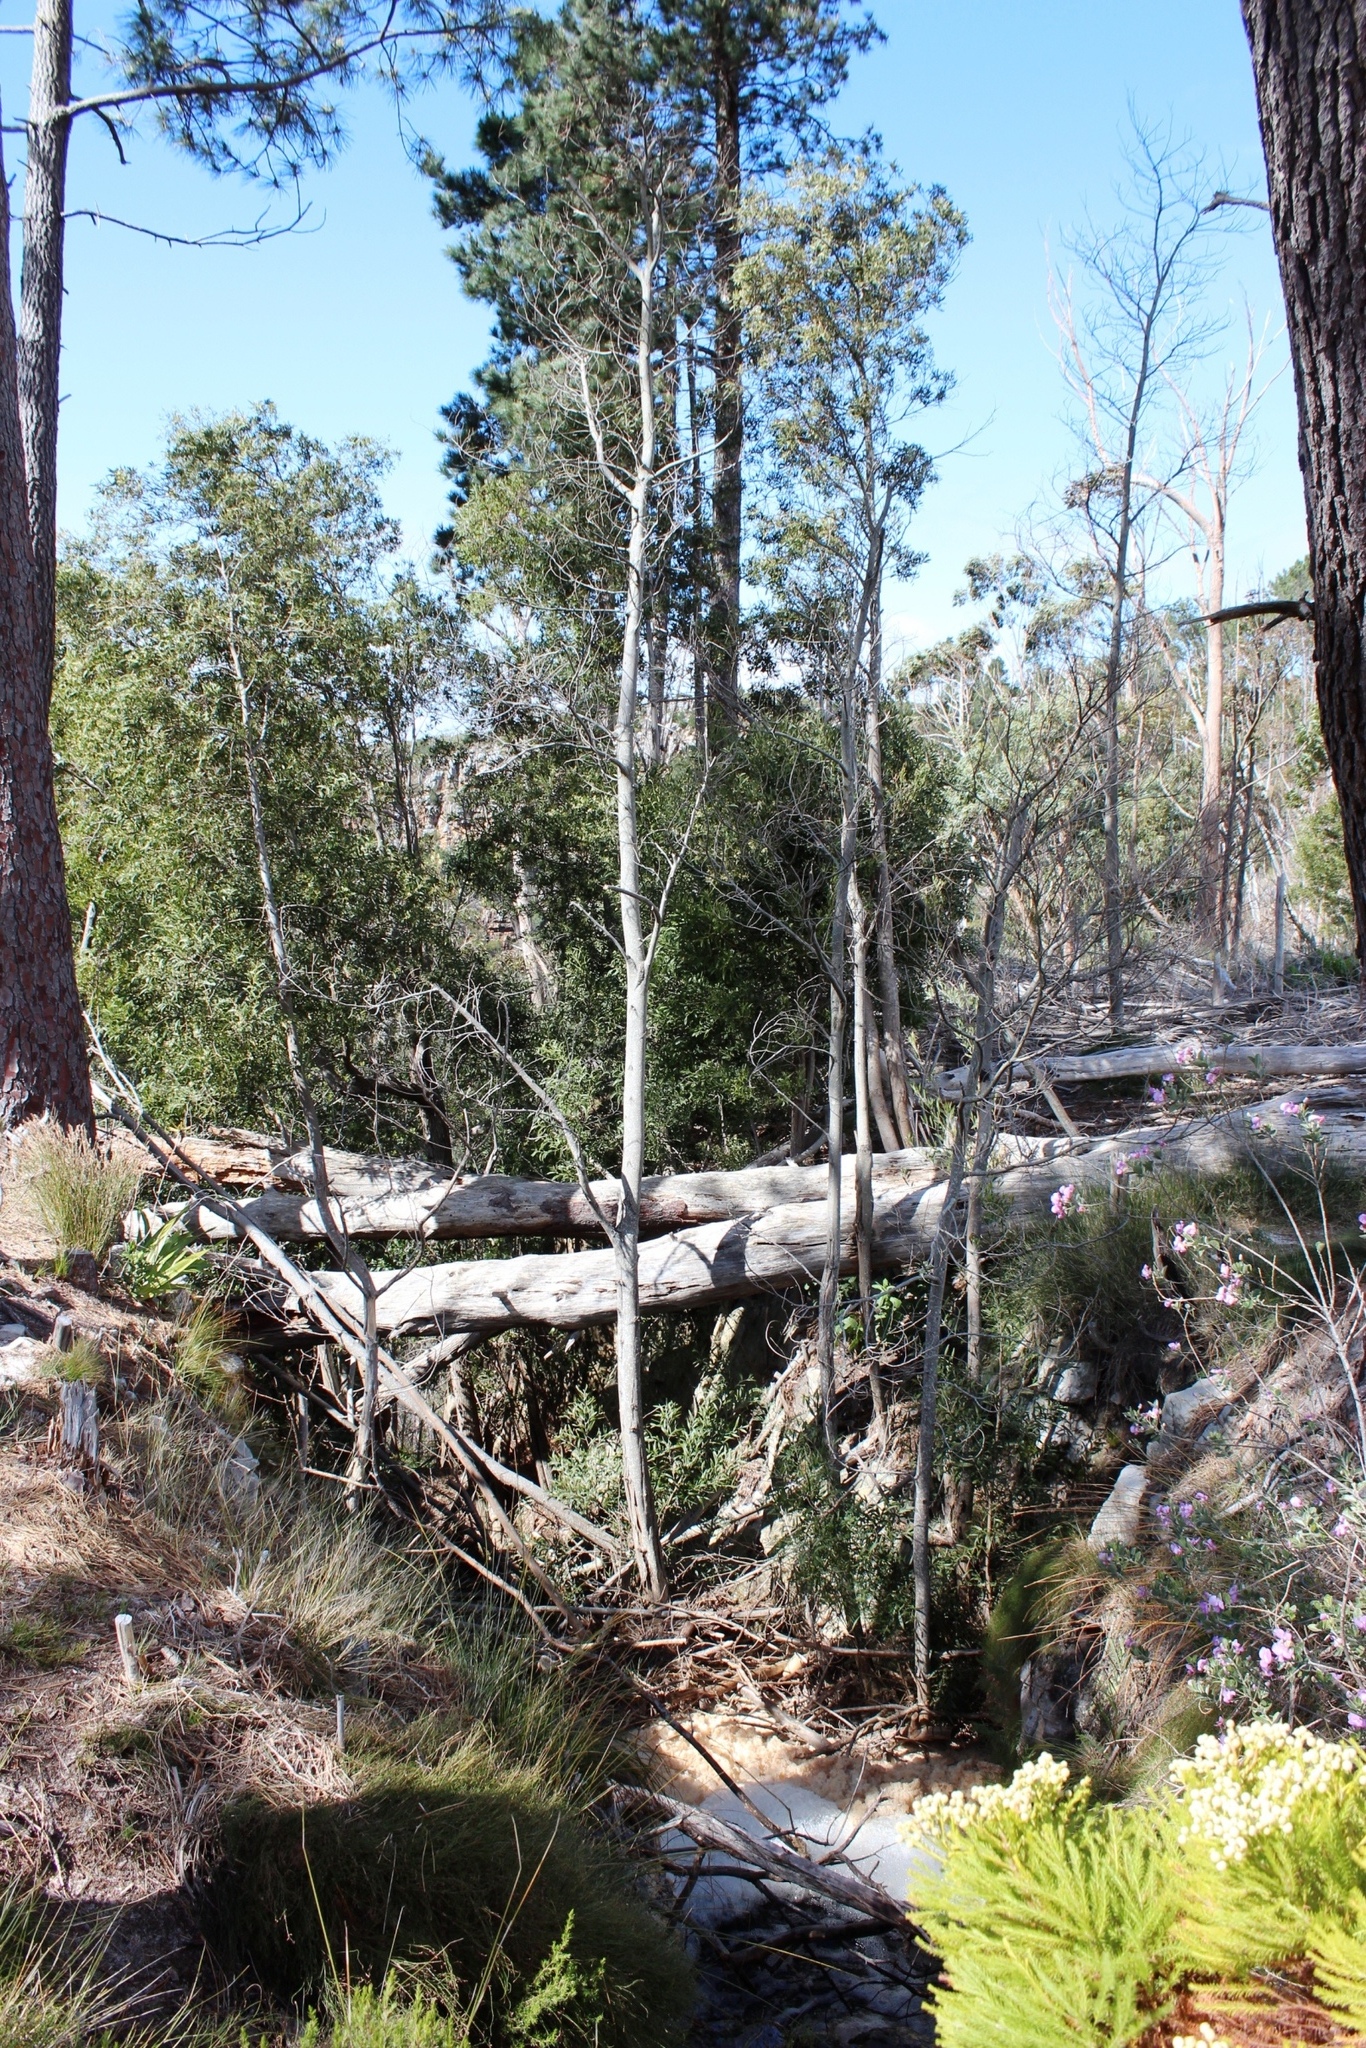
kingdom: Plantae
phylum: Tracheophyta
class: Pinopsida
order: Pinales
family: Pinaceae
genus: Pinus
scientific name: Pinus radiata
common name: Monterey pine
